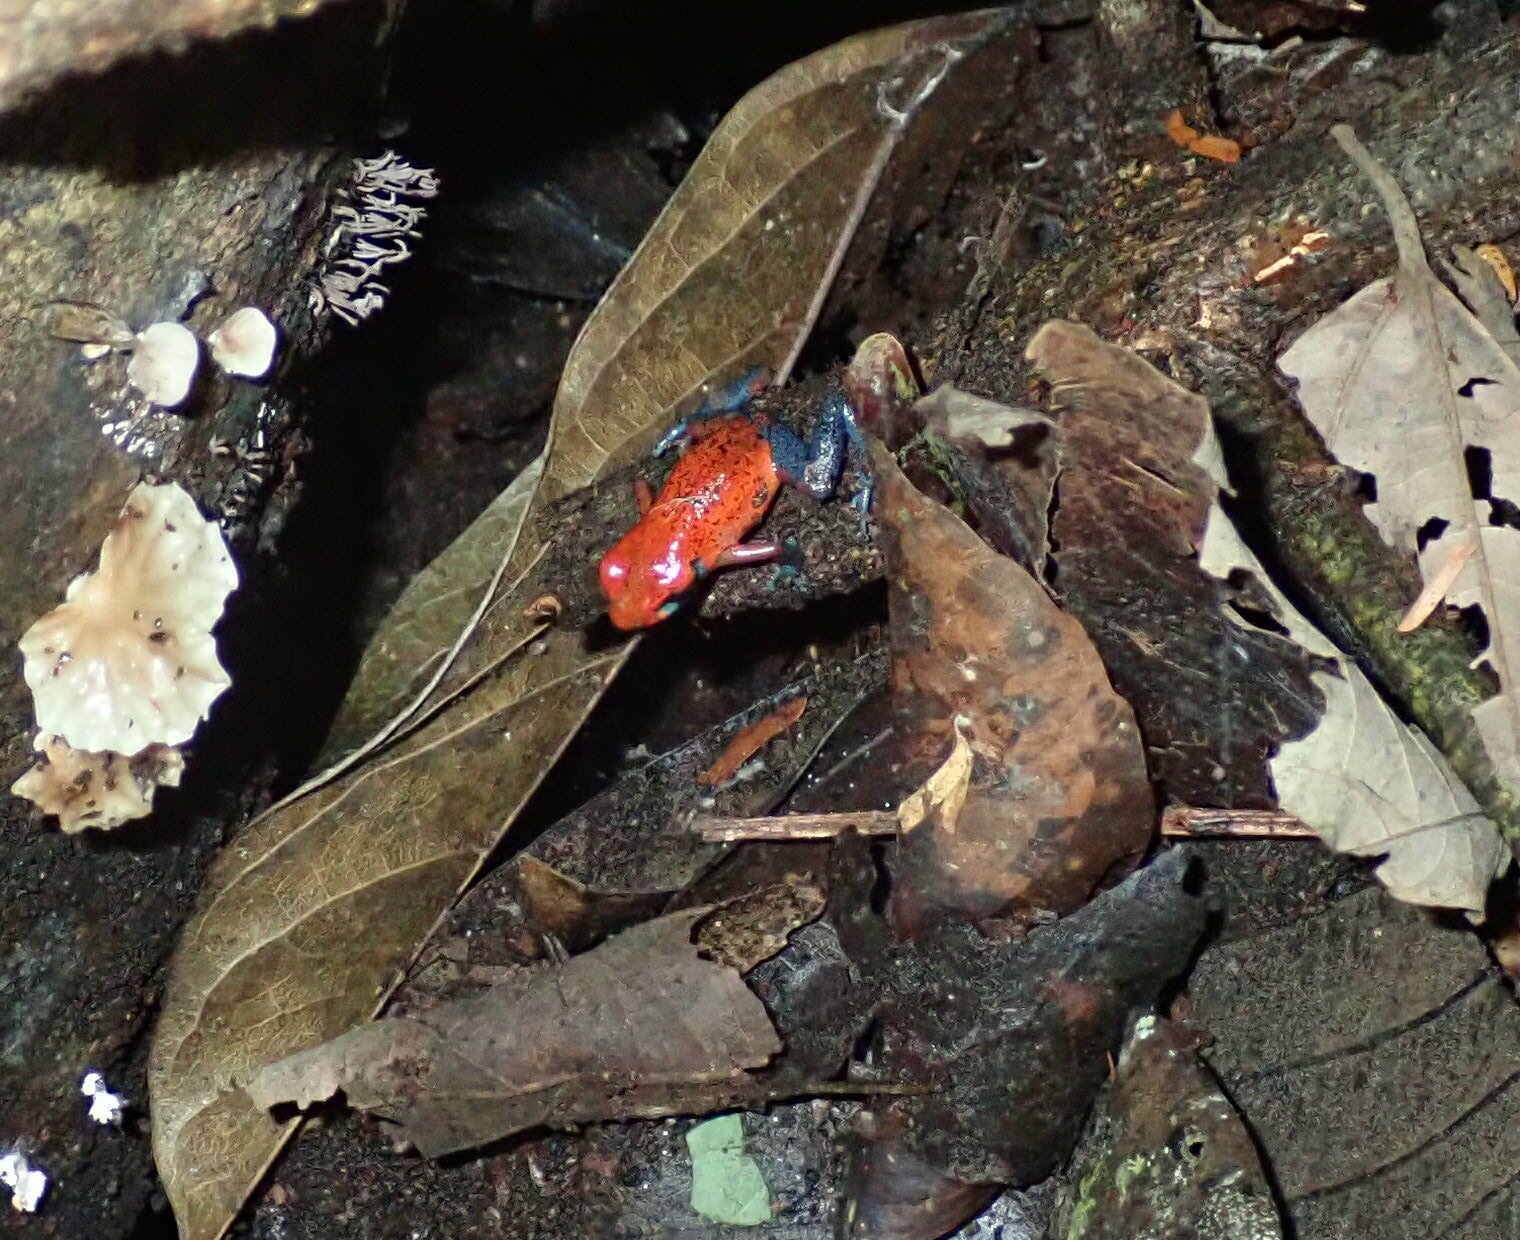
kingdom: Animalia
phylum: Chordata
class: Amphibia
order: Anura
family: Dendrobatidae
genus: Oophaga
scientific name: Oophaga pumilio
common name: Flaming poison frog
